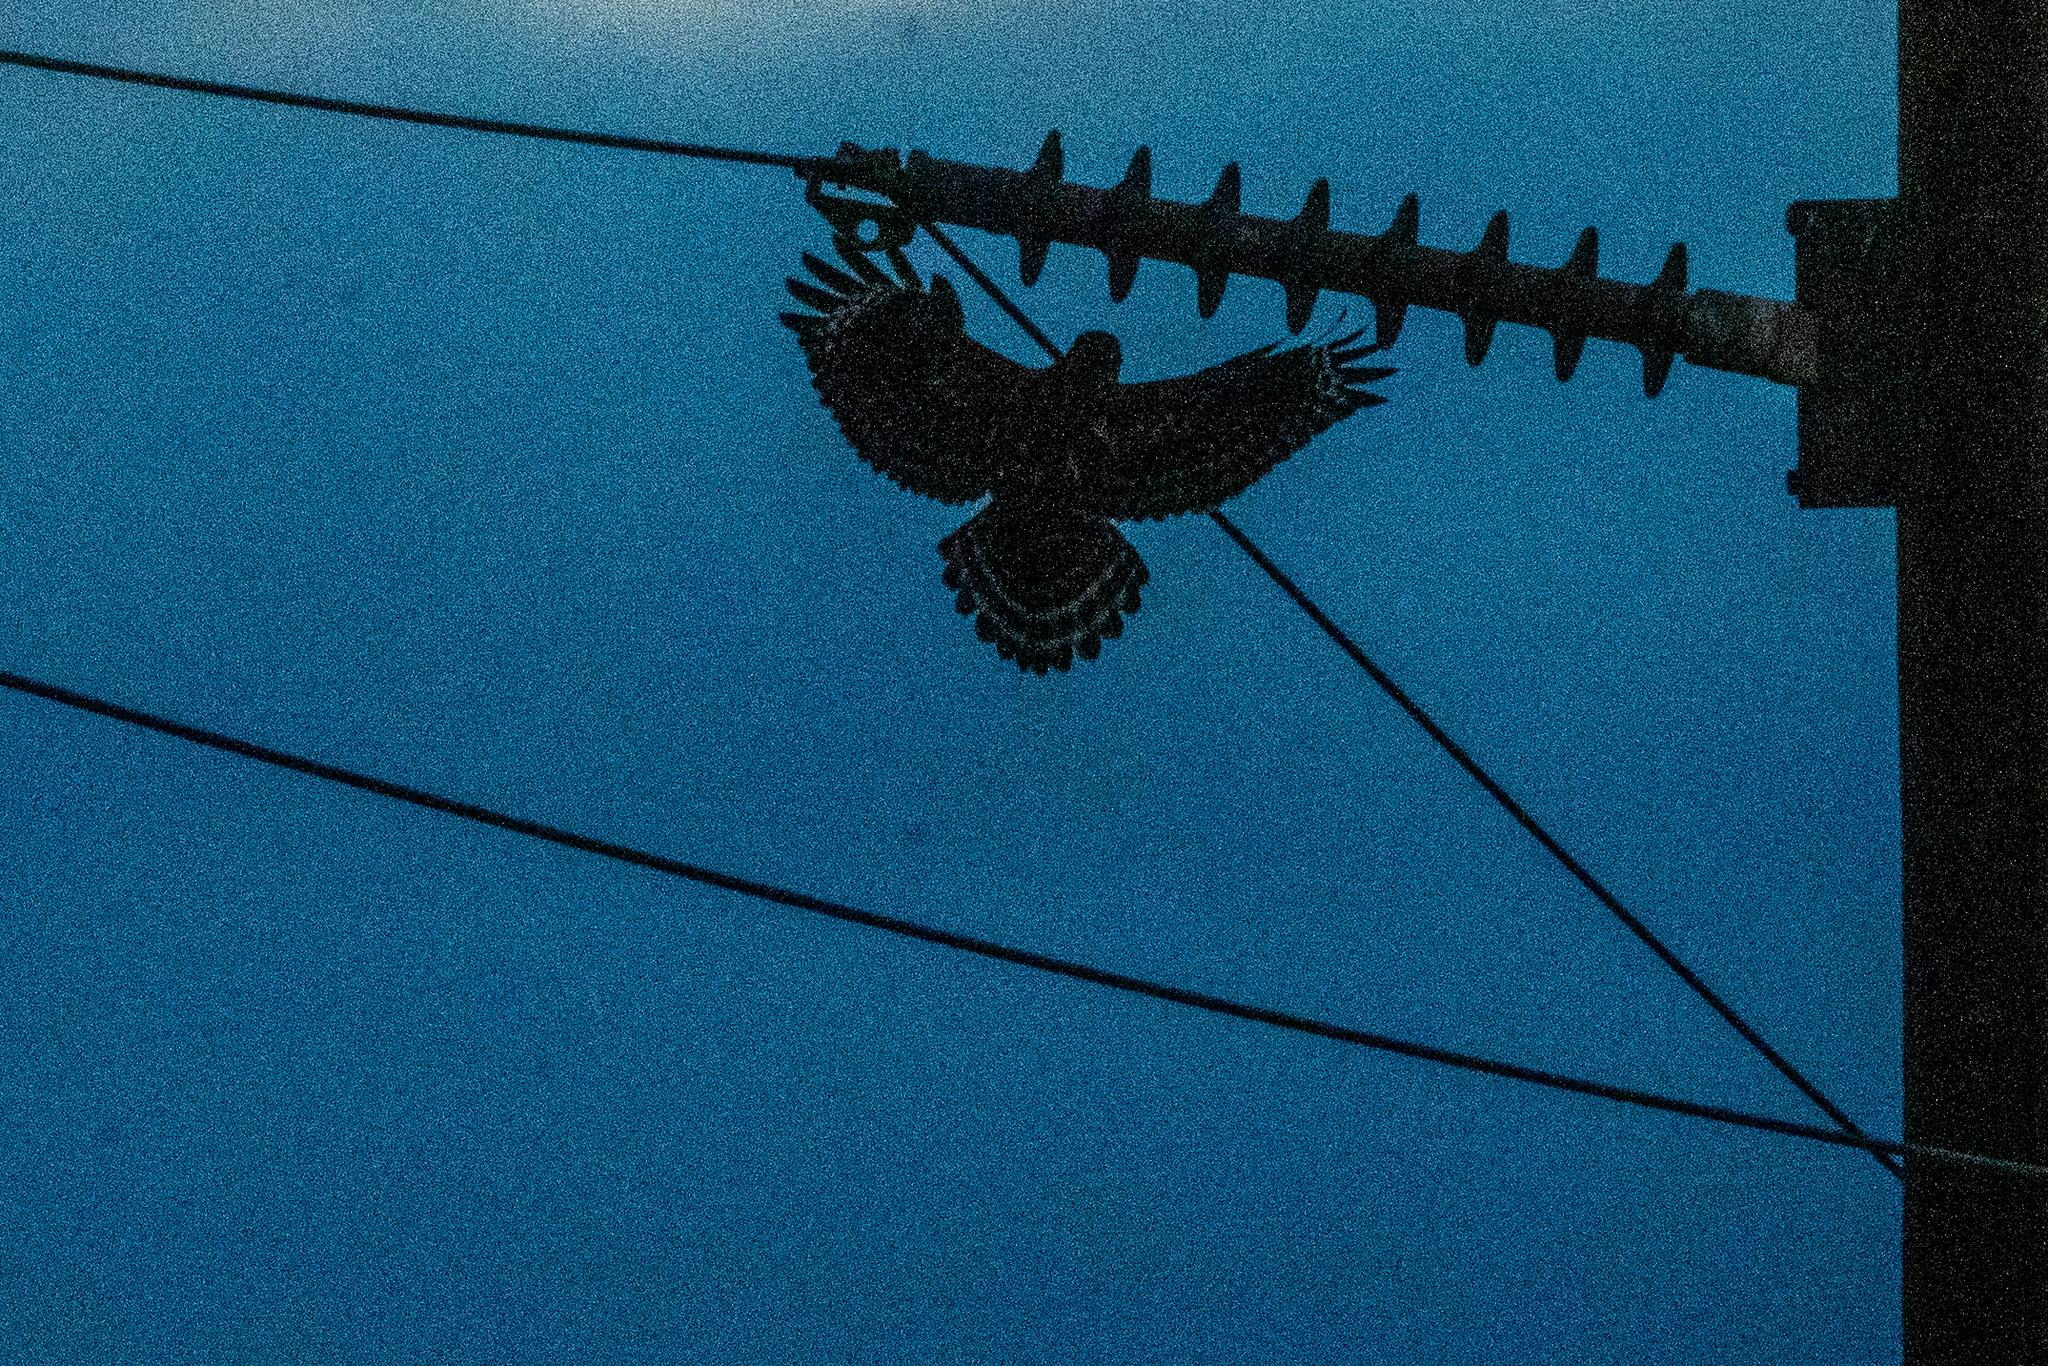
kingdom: Animalia
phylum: Chordata
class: Aves
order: Accipitriformes
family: Accipitridae
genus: Buteo
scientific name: Buteo lineatus
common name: Red-shouldered hawk
